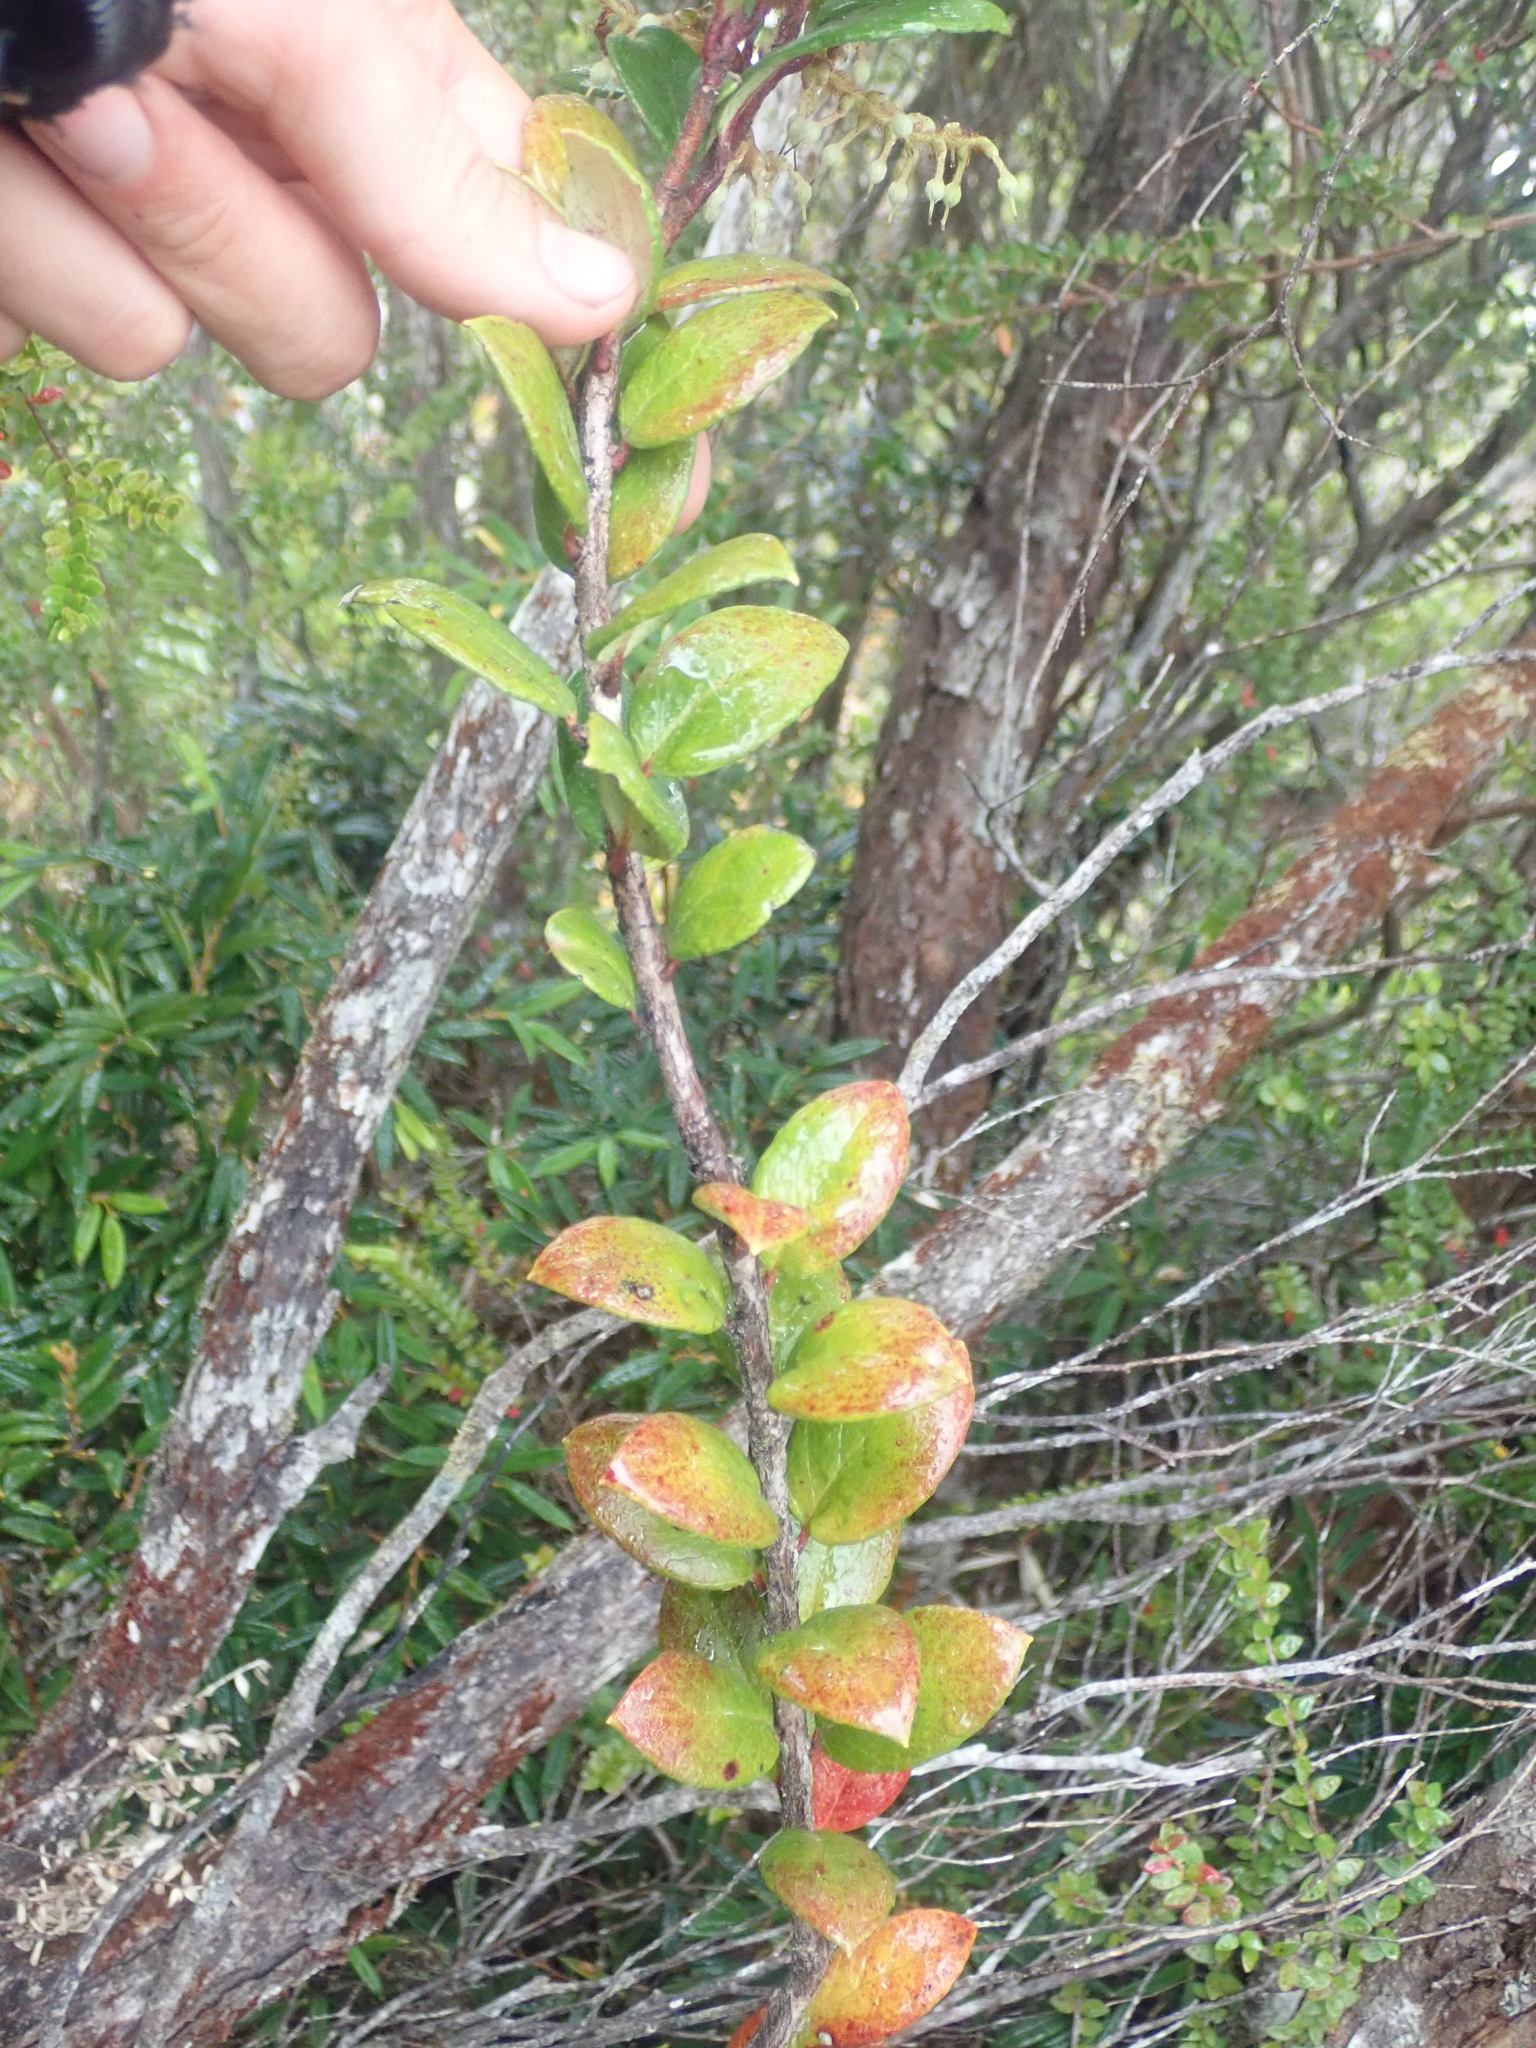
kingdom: Plantae
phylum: Tracheophyta
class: Magnoliopsida
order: Ericales
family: Ericaceae
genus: Gaultheria
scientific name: Gaultheria insana
